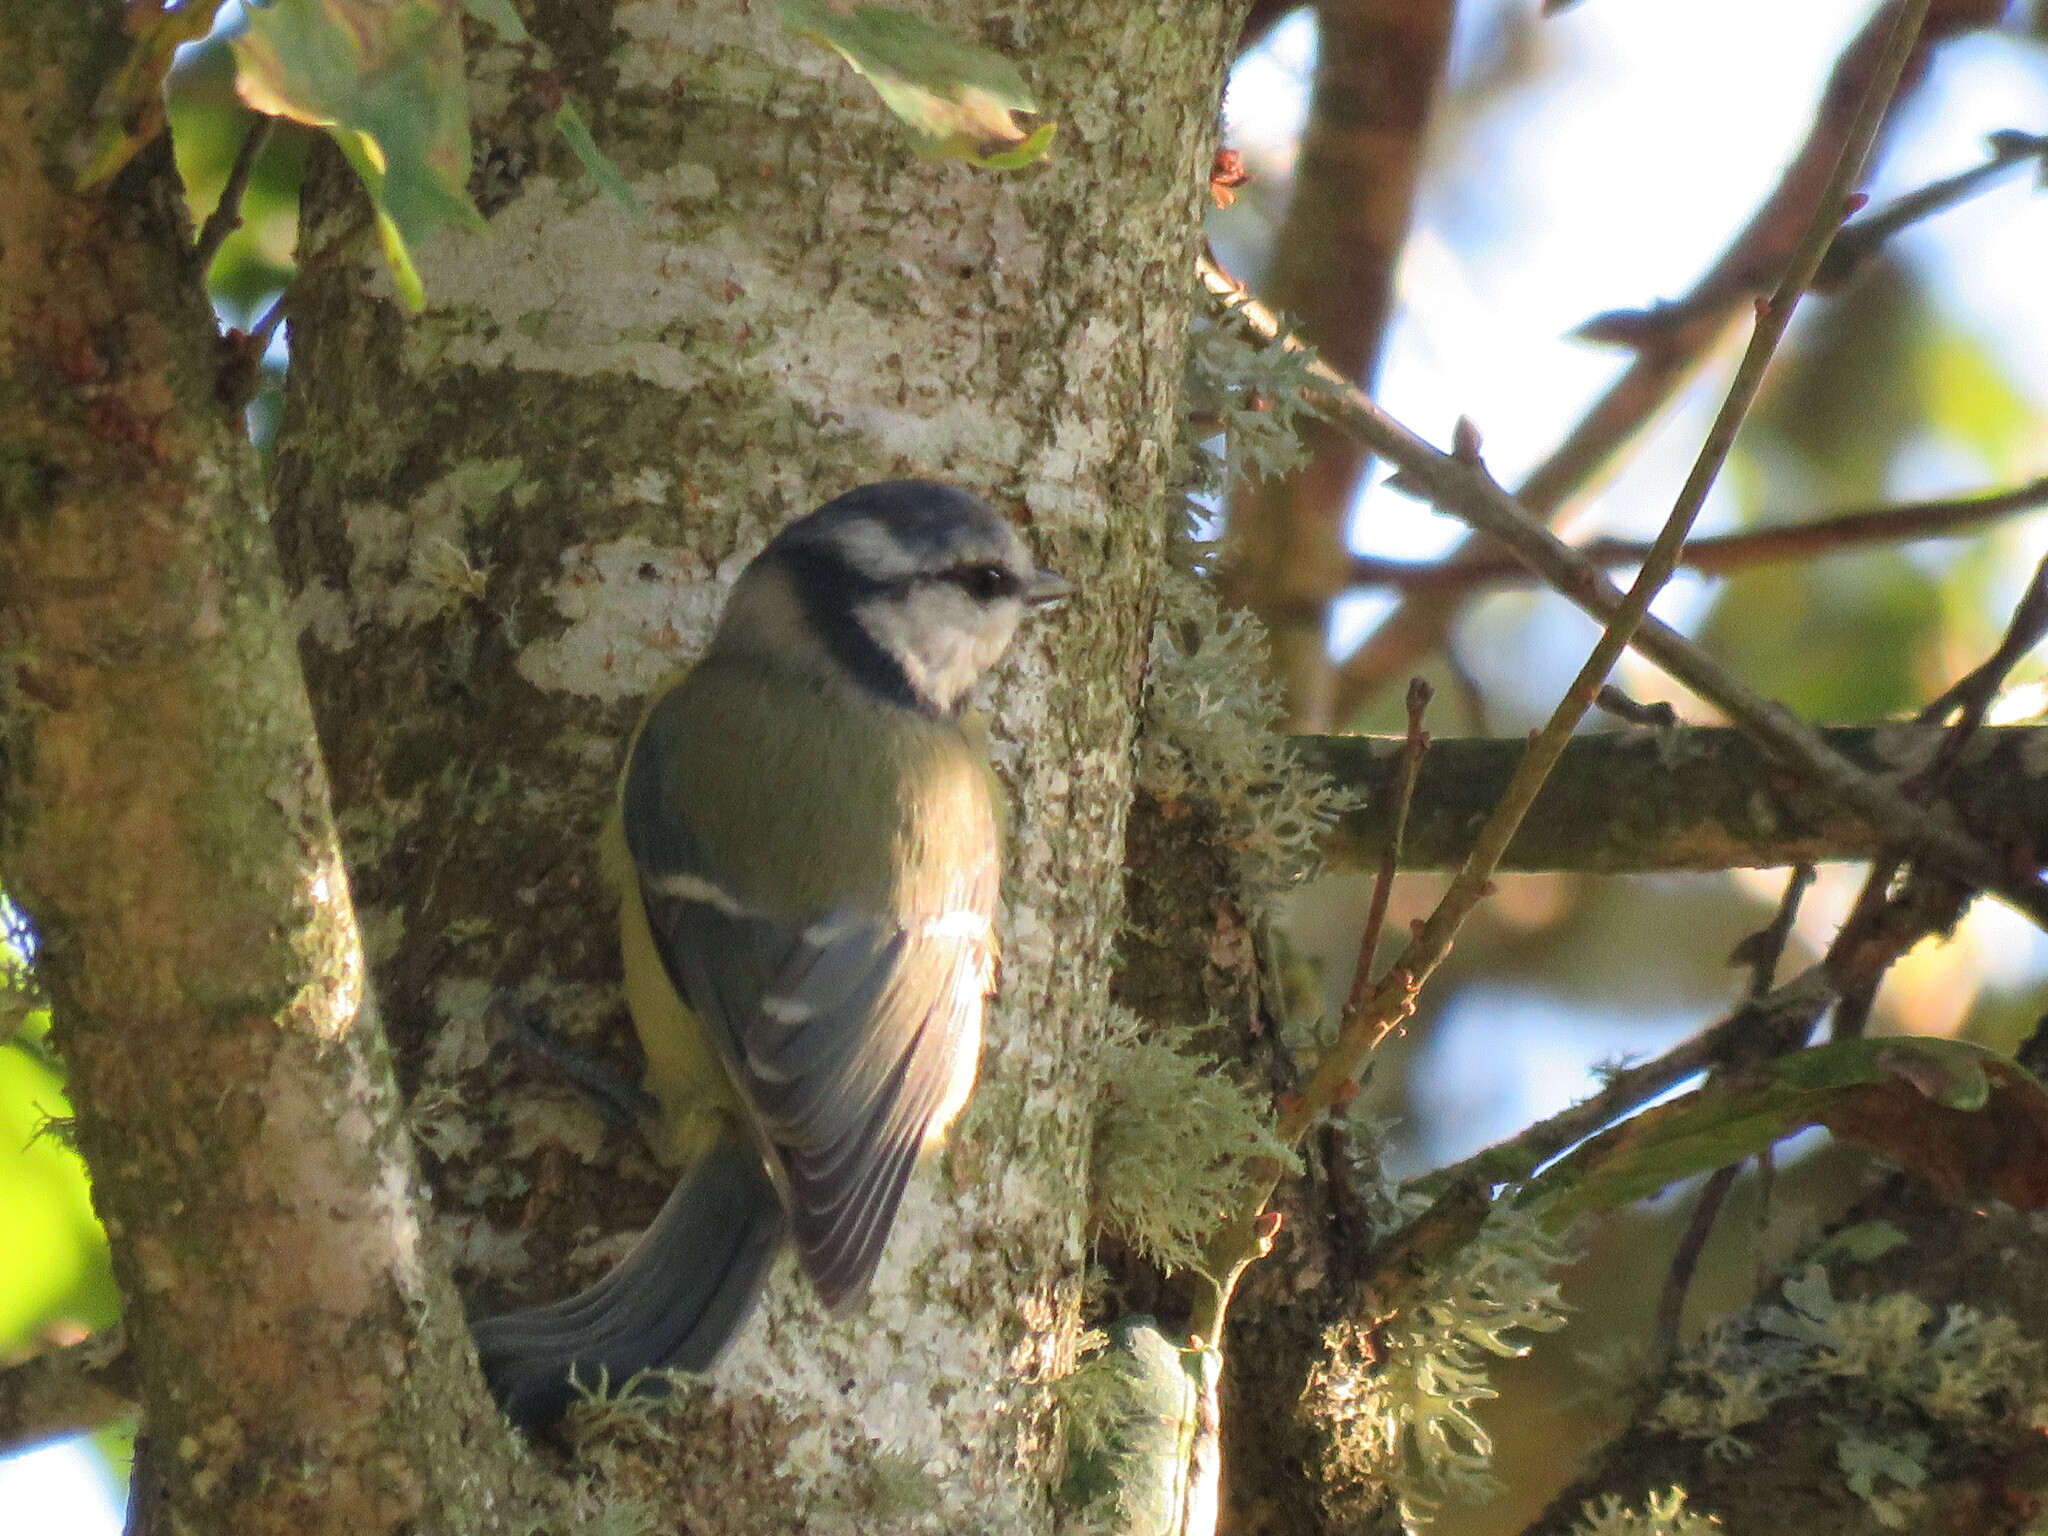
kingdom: Animalia
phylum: Chordata
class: Aves
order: Passeriformes
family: Paridae
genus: Cyanistes
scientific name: Cyanistes caeruleus
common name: Eurasian blue tit
